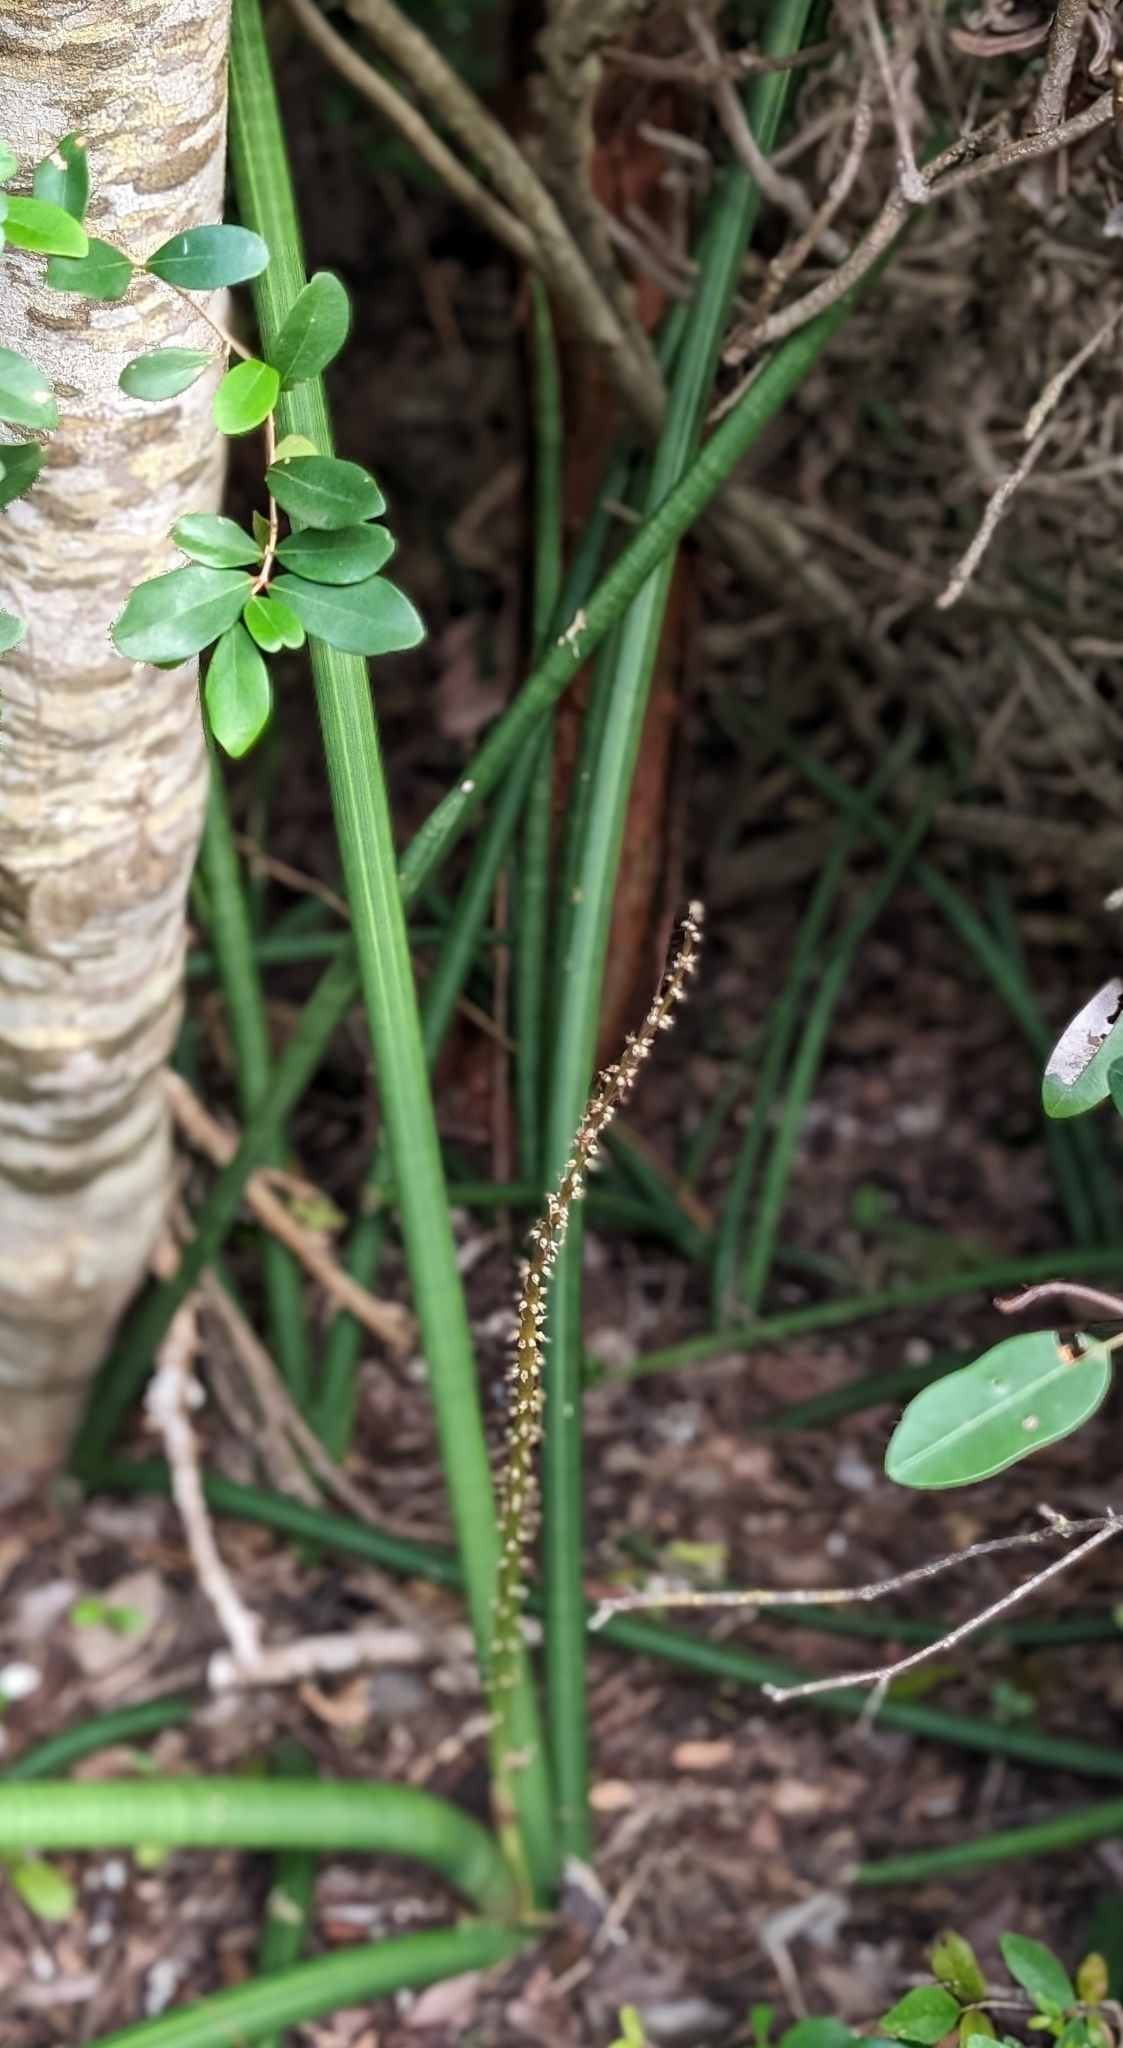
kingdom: Plantae
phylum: Tracheophyta
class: Liliopsida
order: Asparagales
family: Asparagaceae
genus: Dracaena
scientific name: Dracaena angolensis
